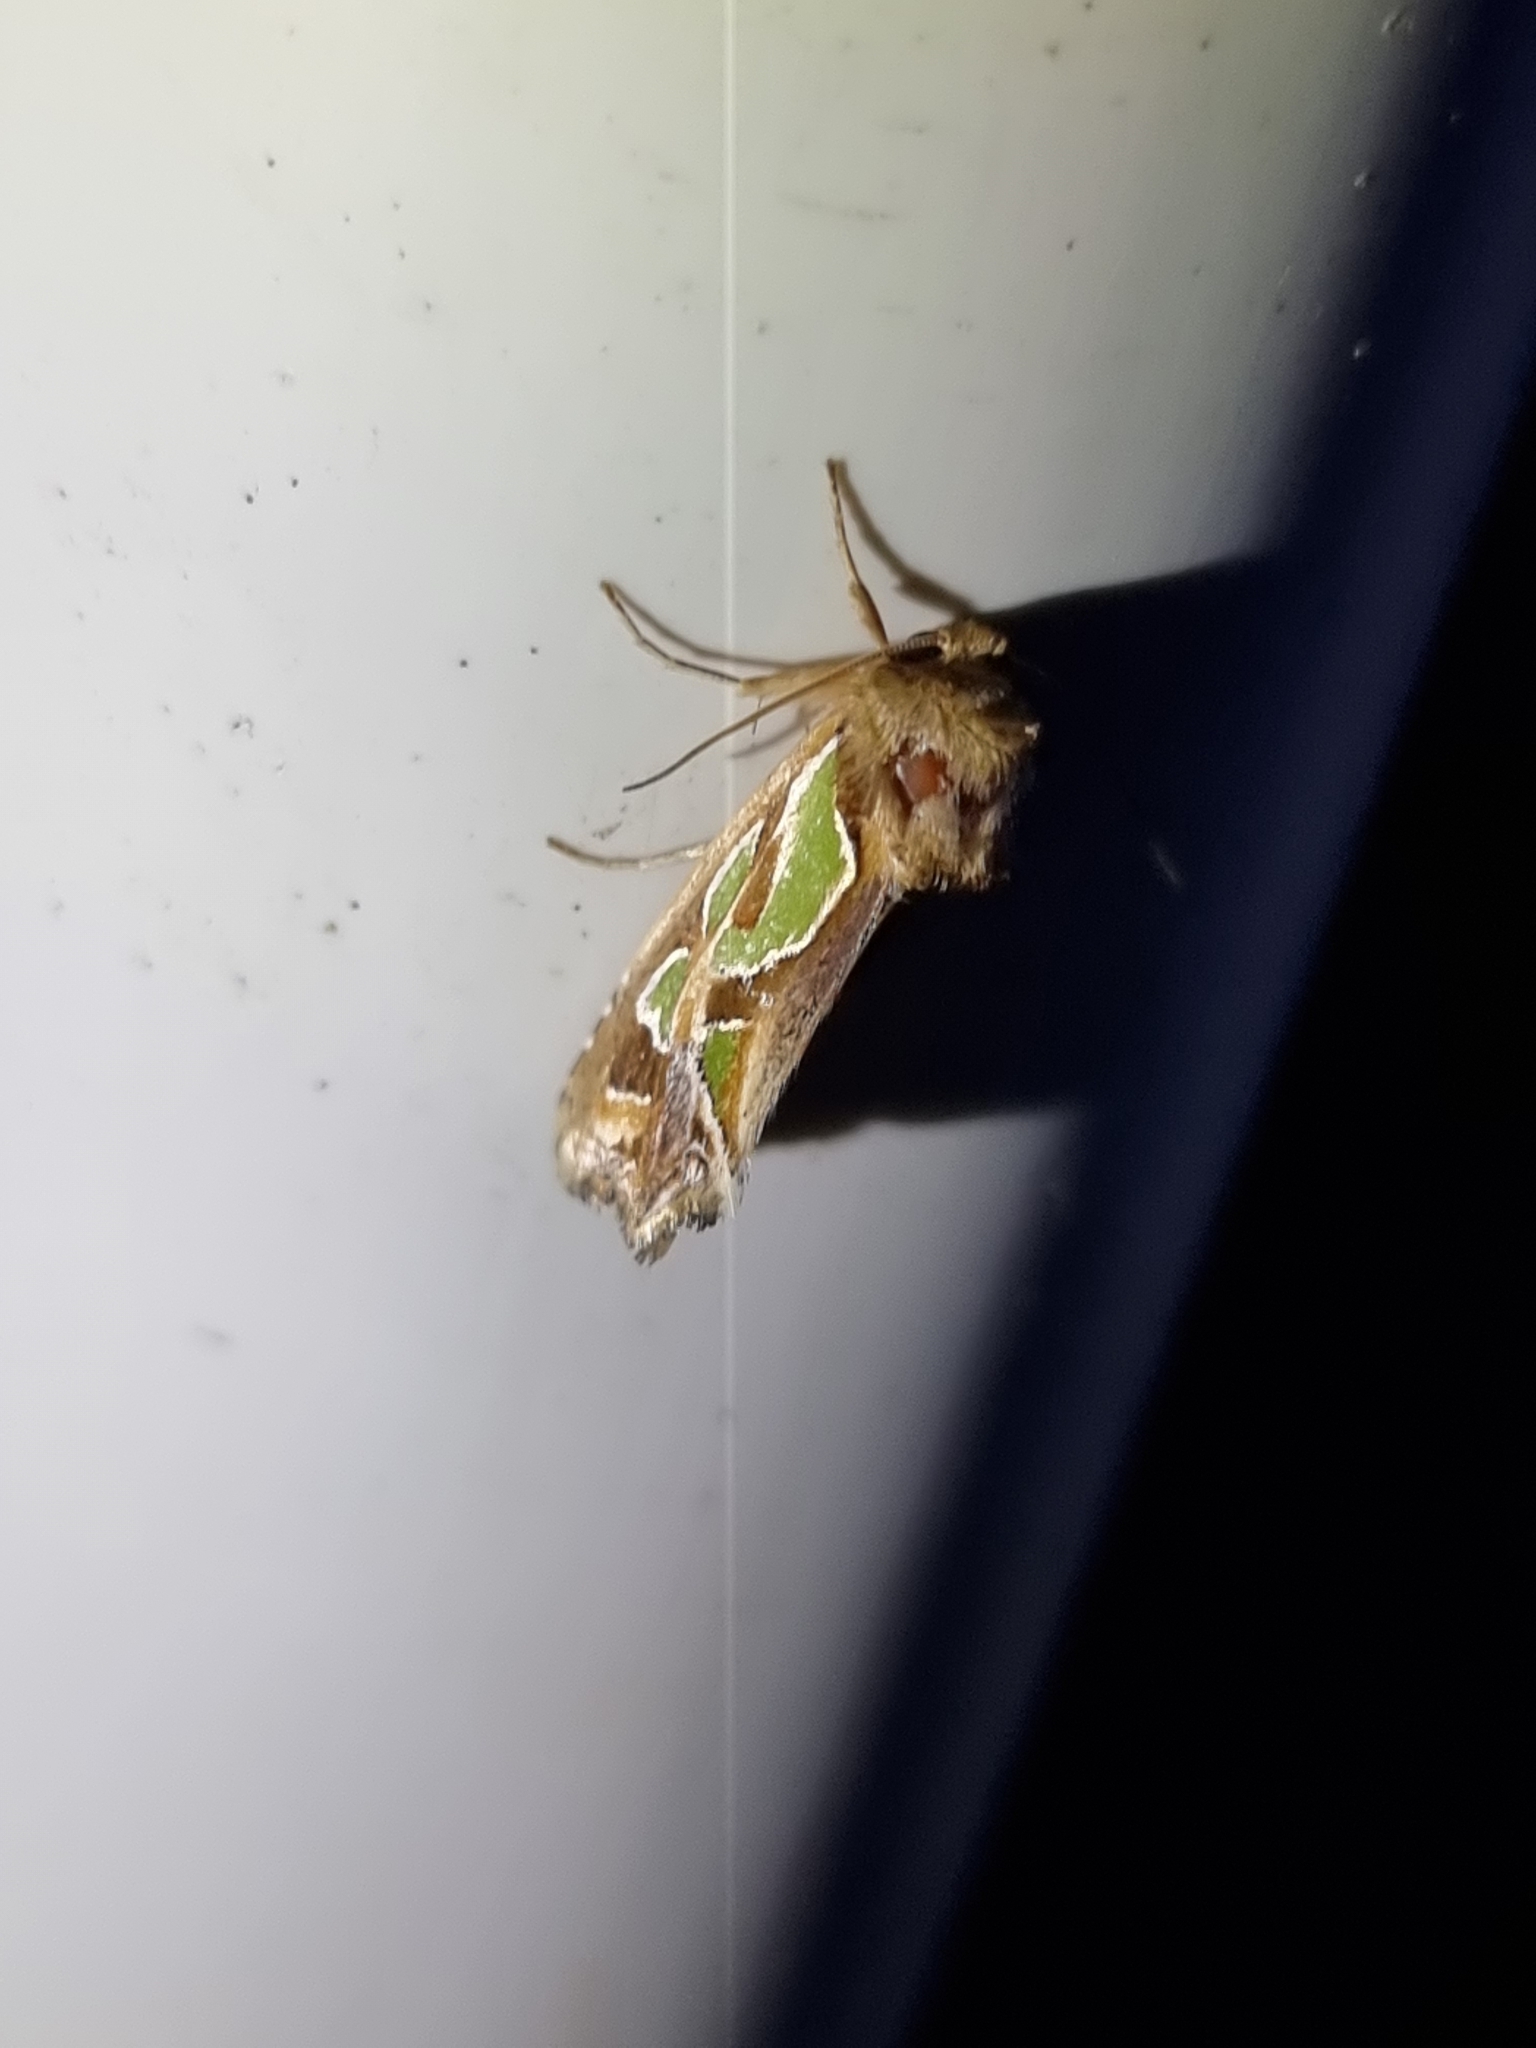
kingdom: Animalia
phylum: Arthropoda
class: Insecta
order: Lepidoptera
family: Noctuidae
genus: Cosmodes
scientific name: Cosmodes elegans
